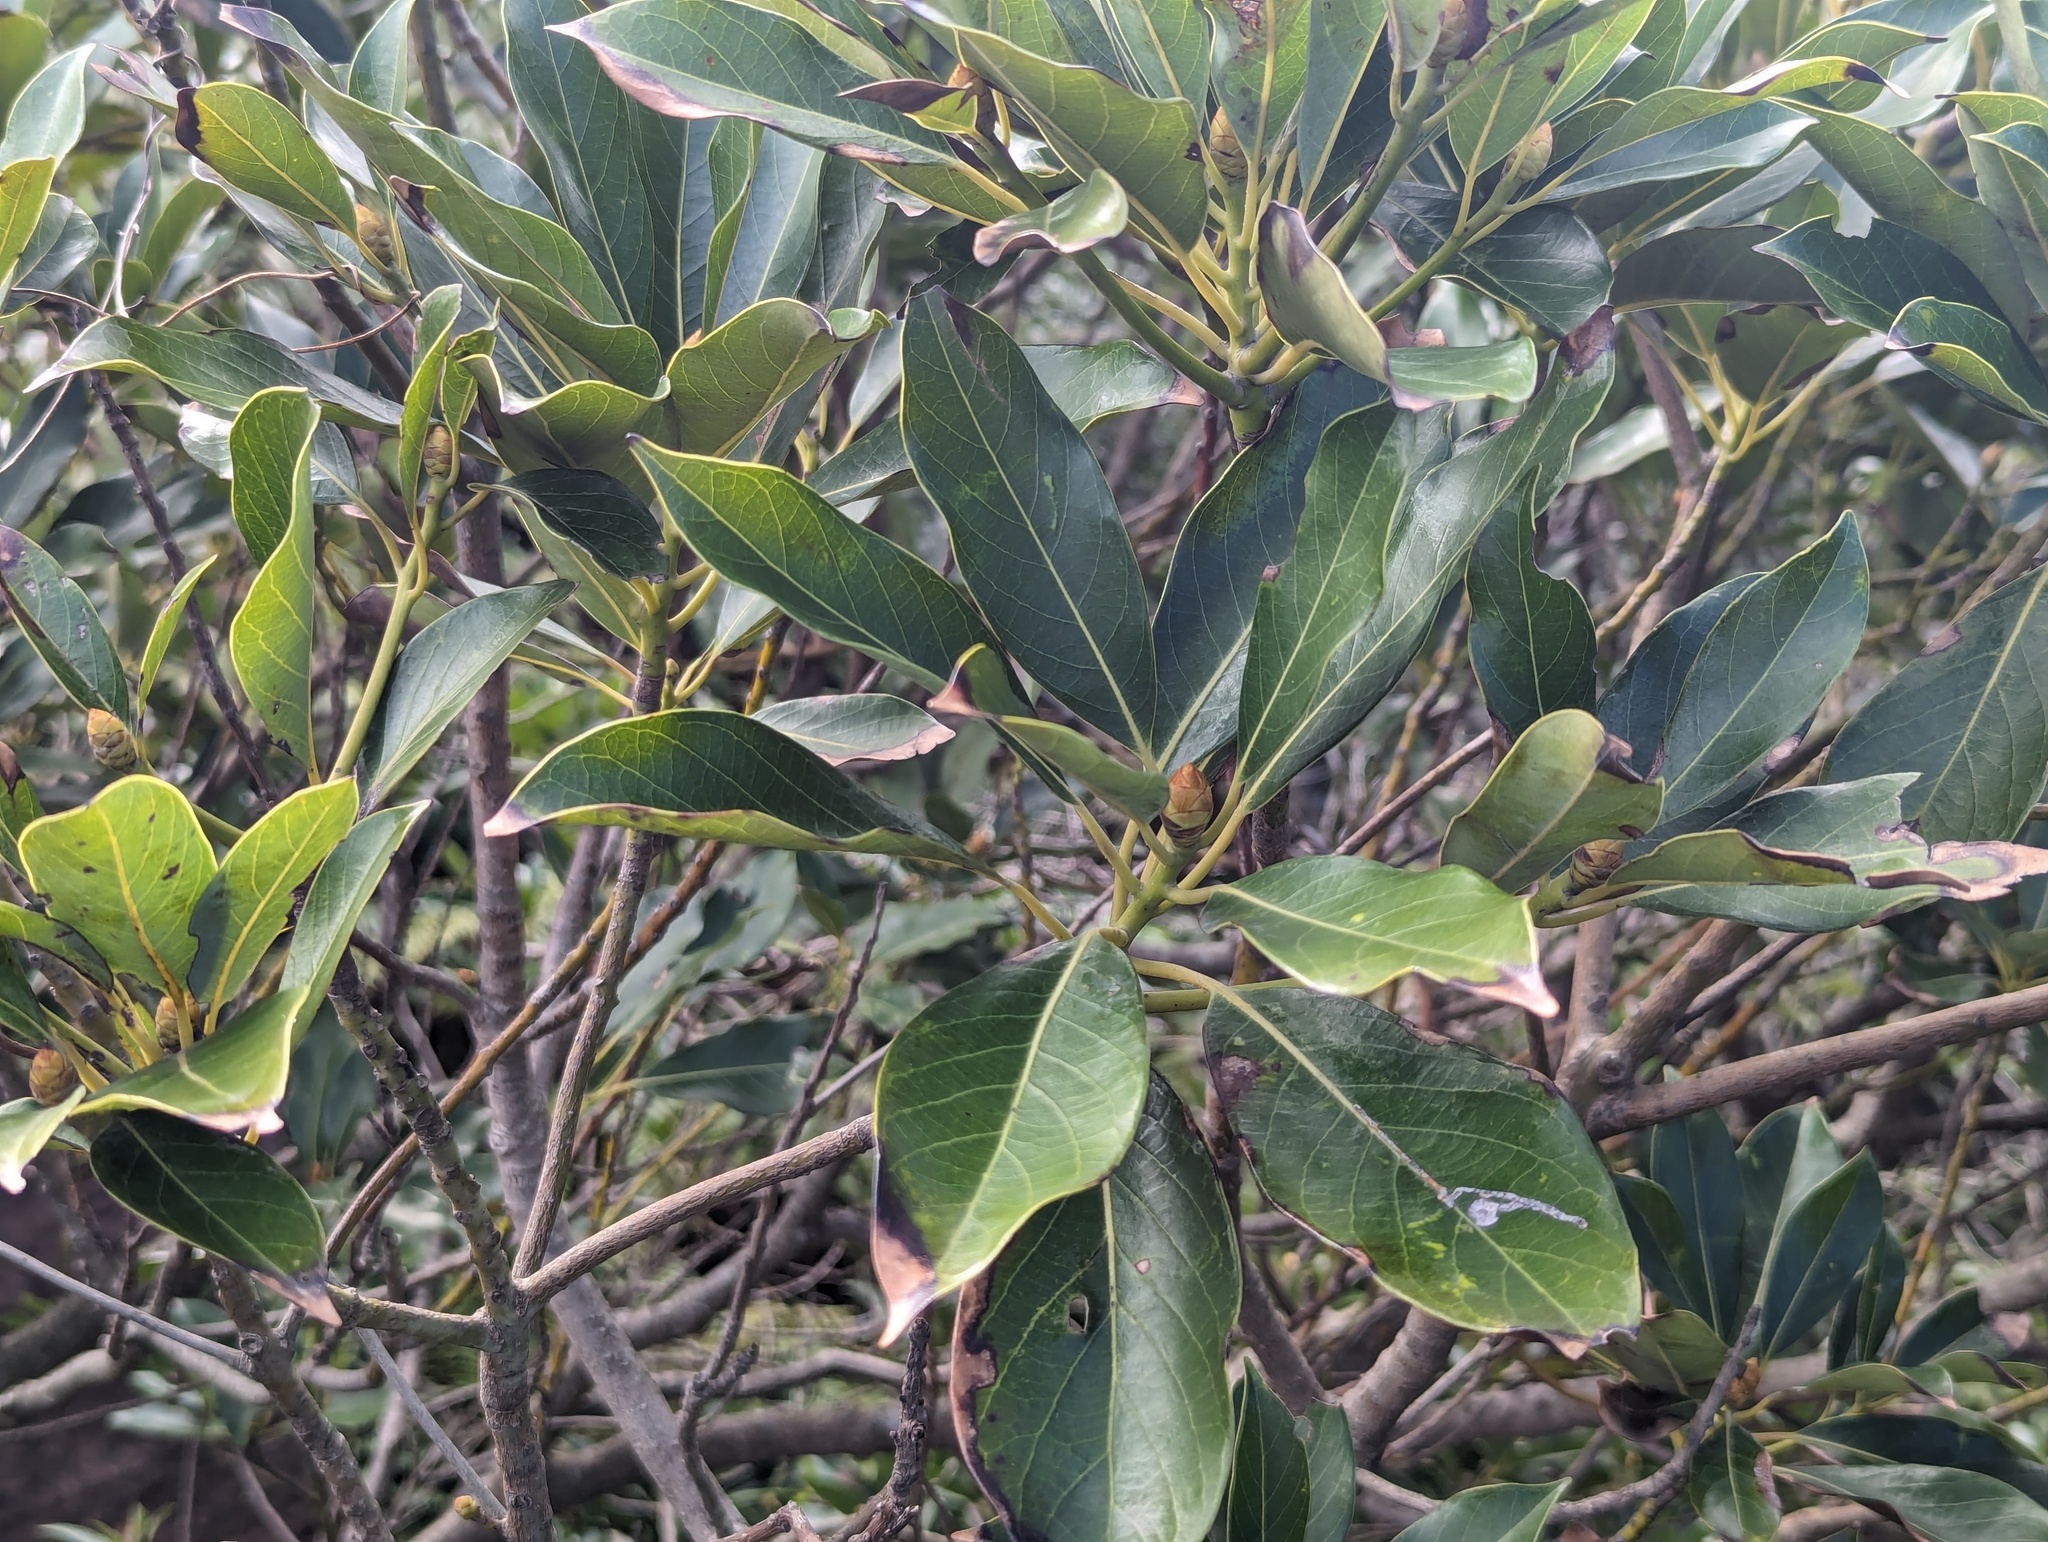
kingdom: Plantae
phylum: Tracheophyta
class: Magnoliopsida
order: Laurales
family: Lauraceae
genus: Machilus
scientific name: Machilus thunbergii
